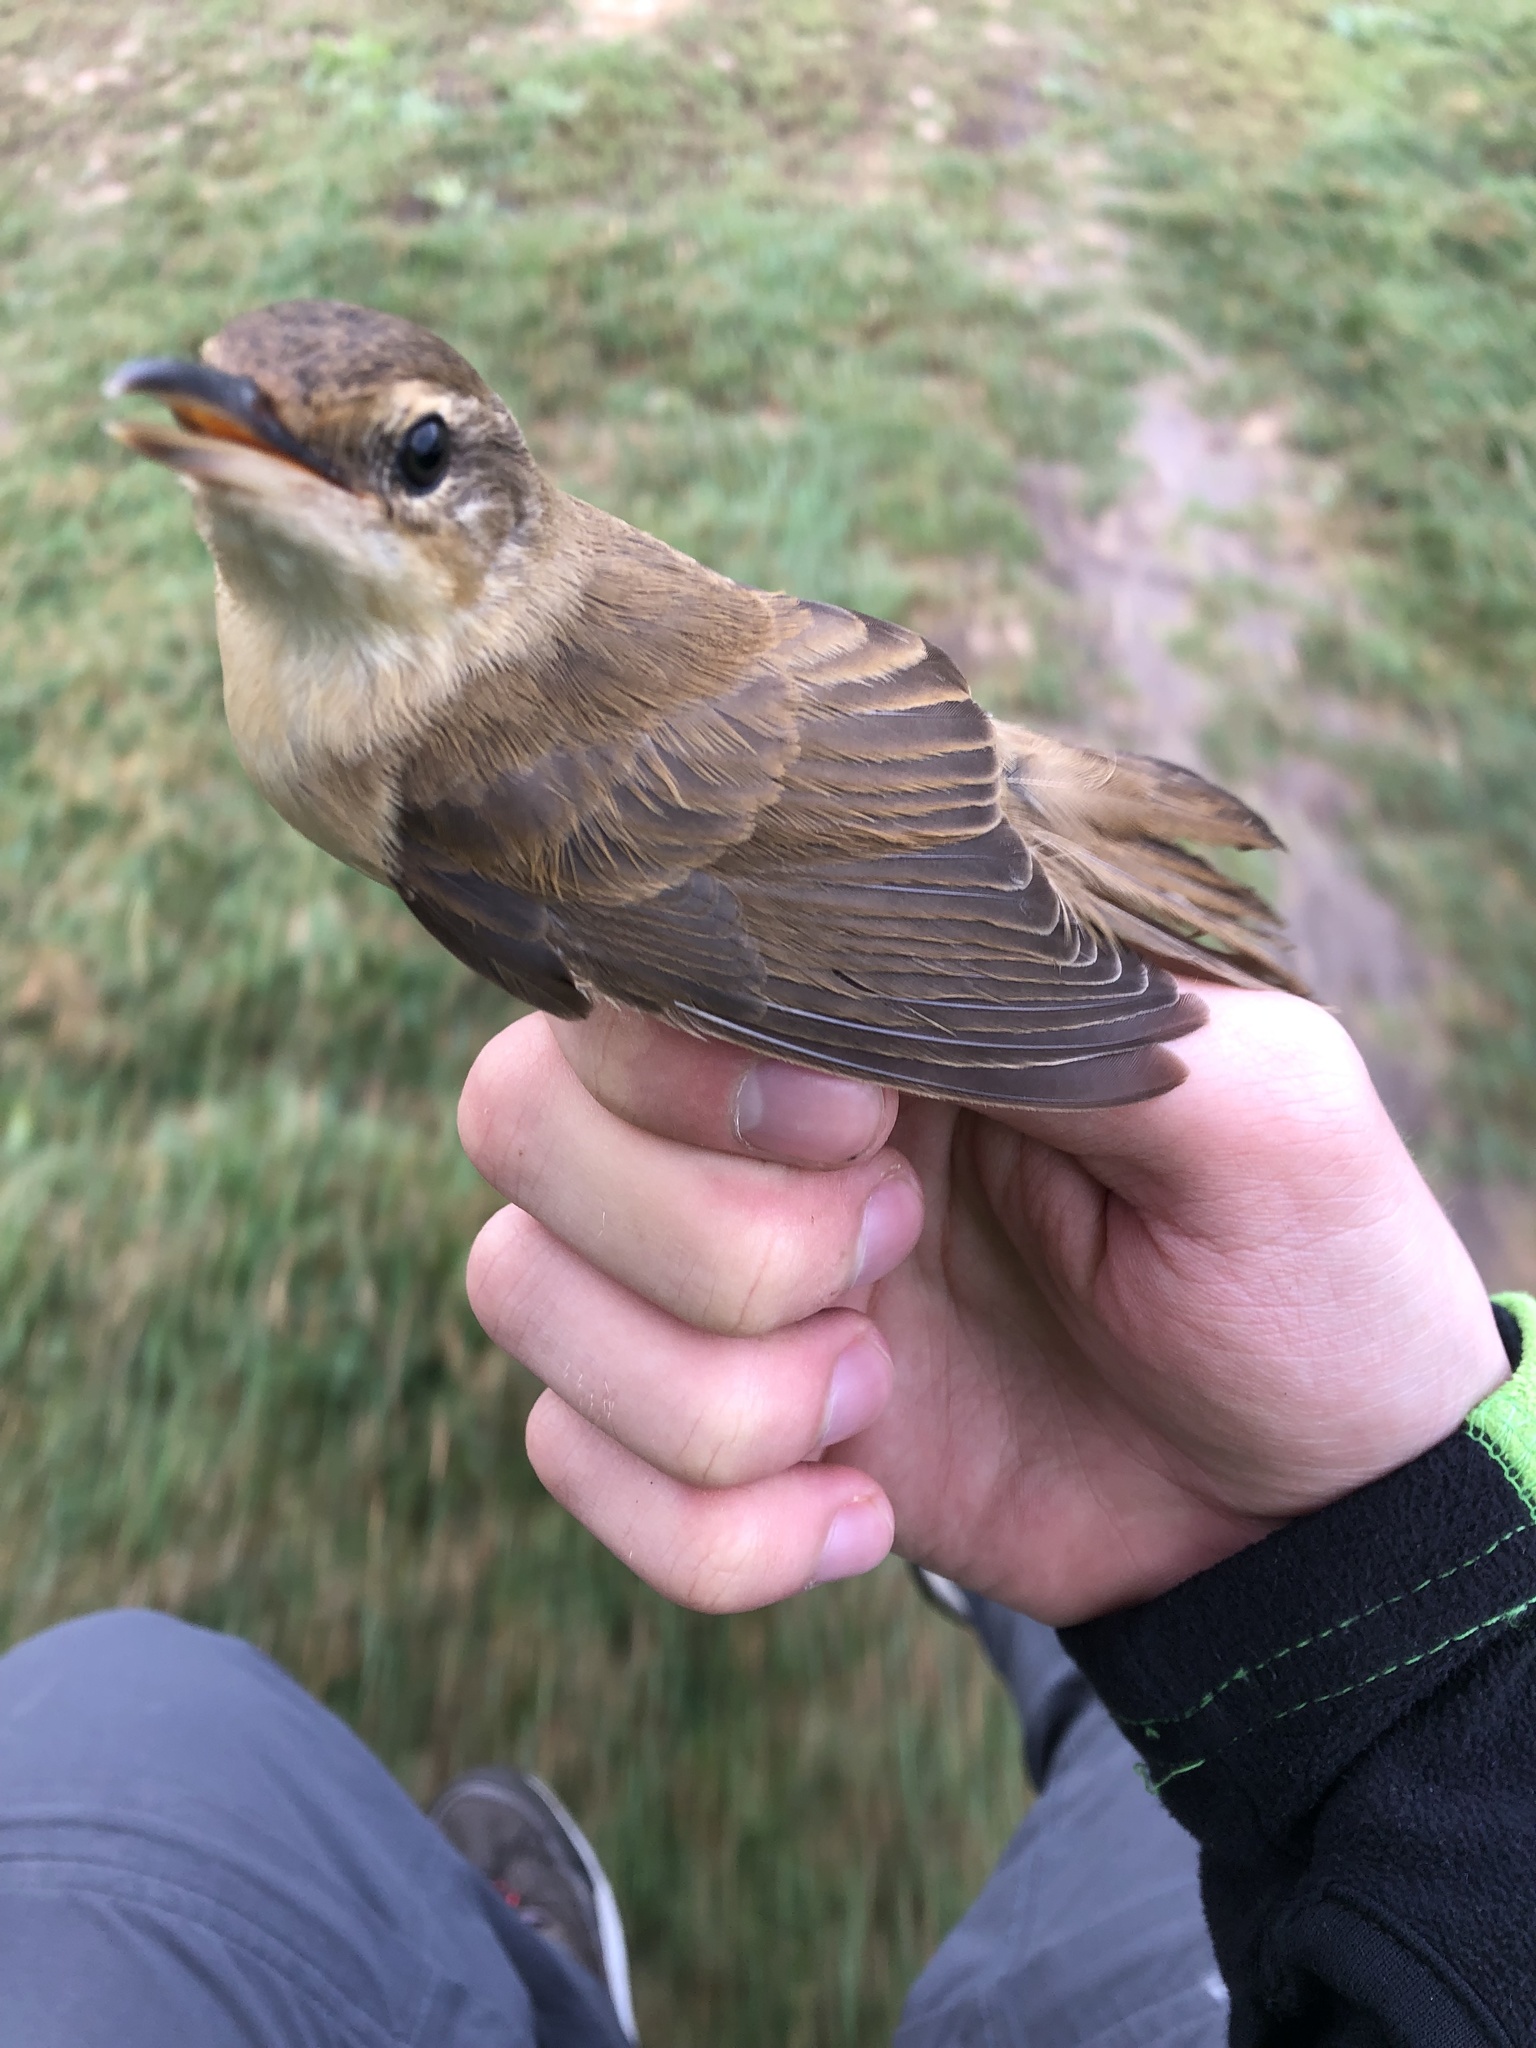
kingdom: Animalia
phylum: Chordata
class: Aves
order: Passeriformes
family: Acrocephalidae
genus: Acrocephalus
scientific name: Acrocephalus arundinaceus
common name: Great reed warbler
